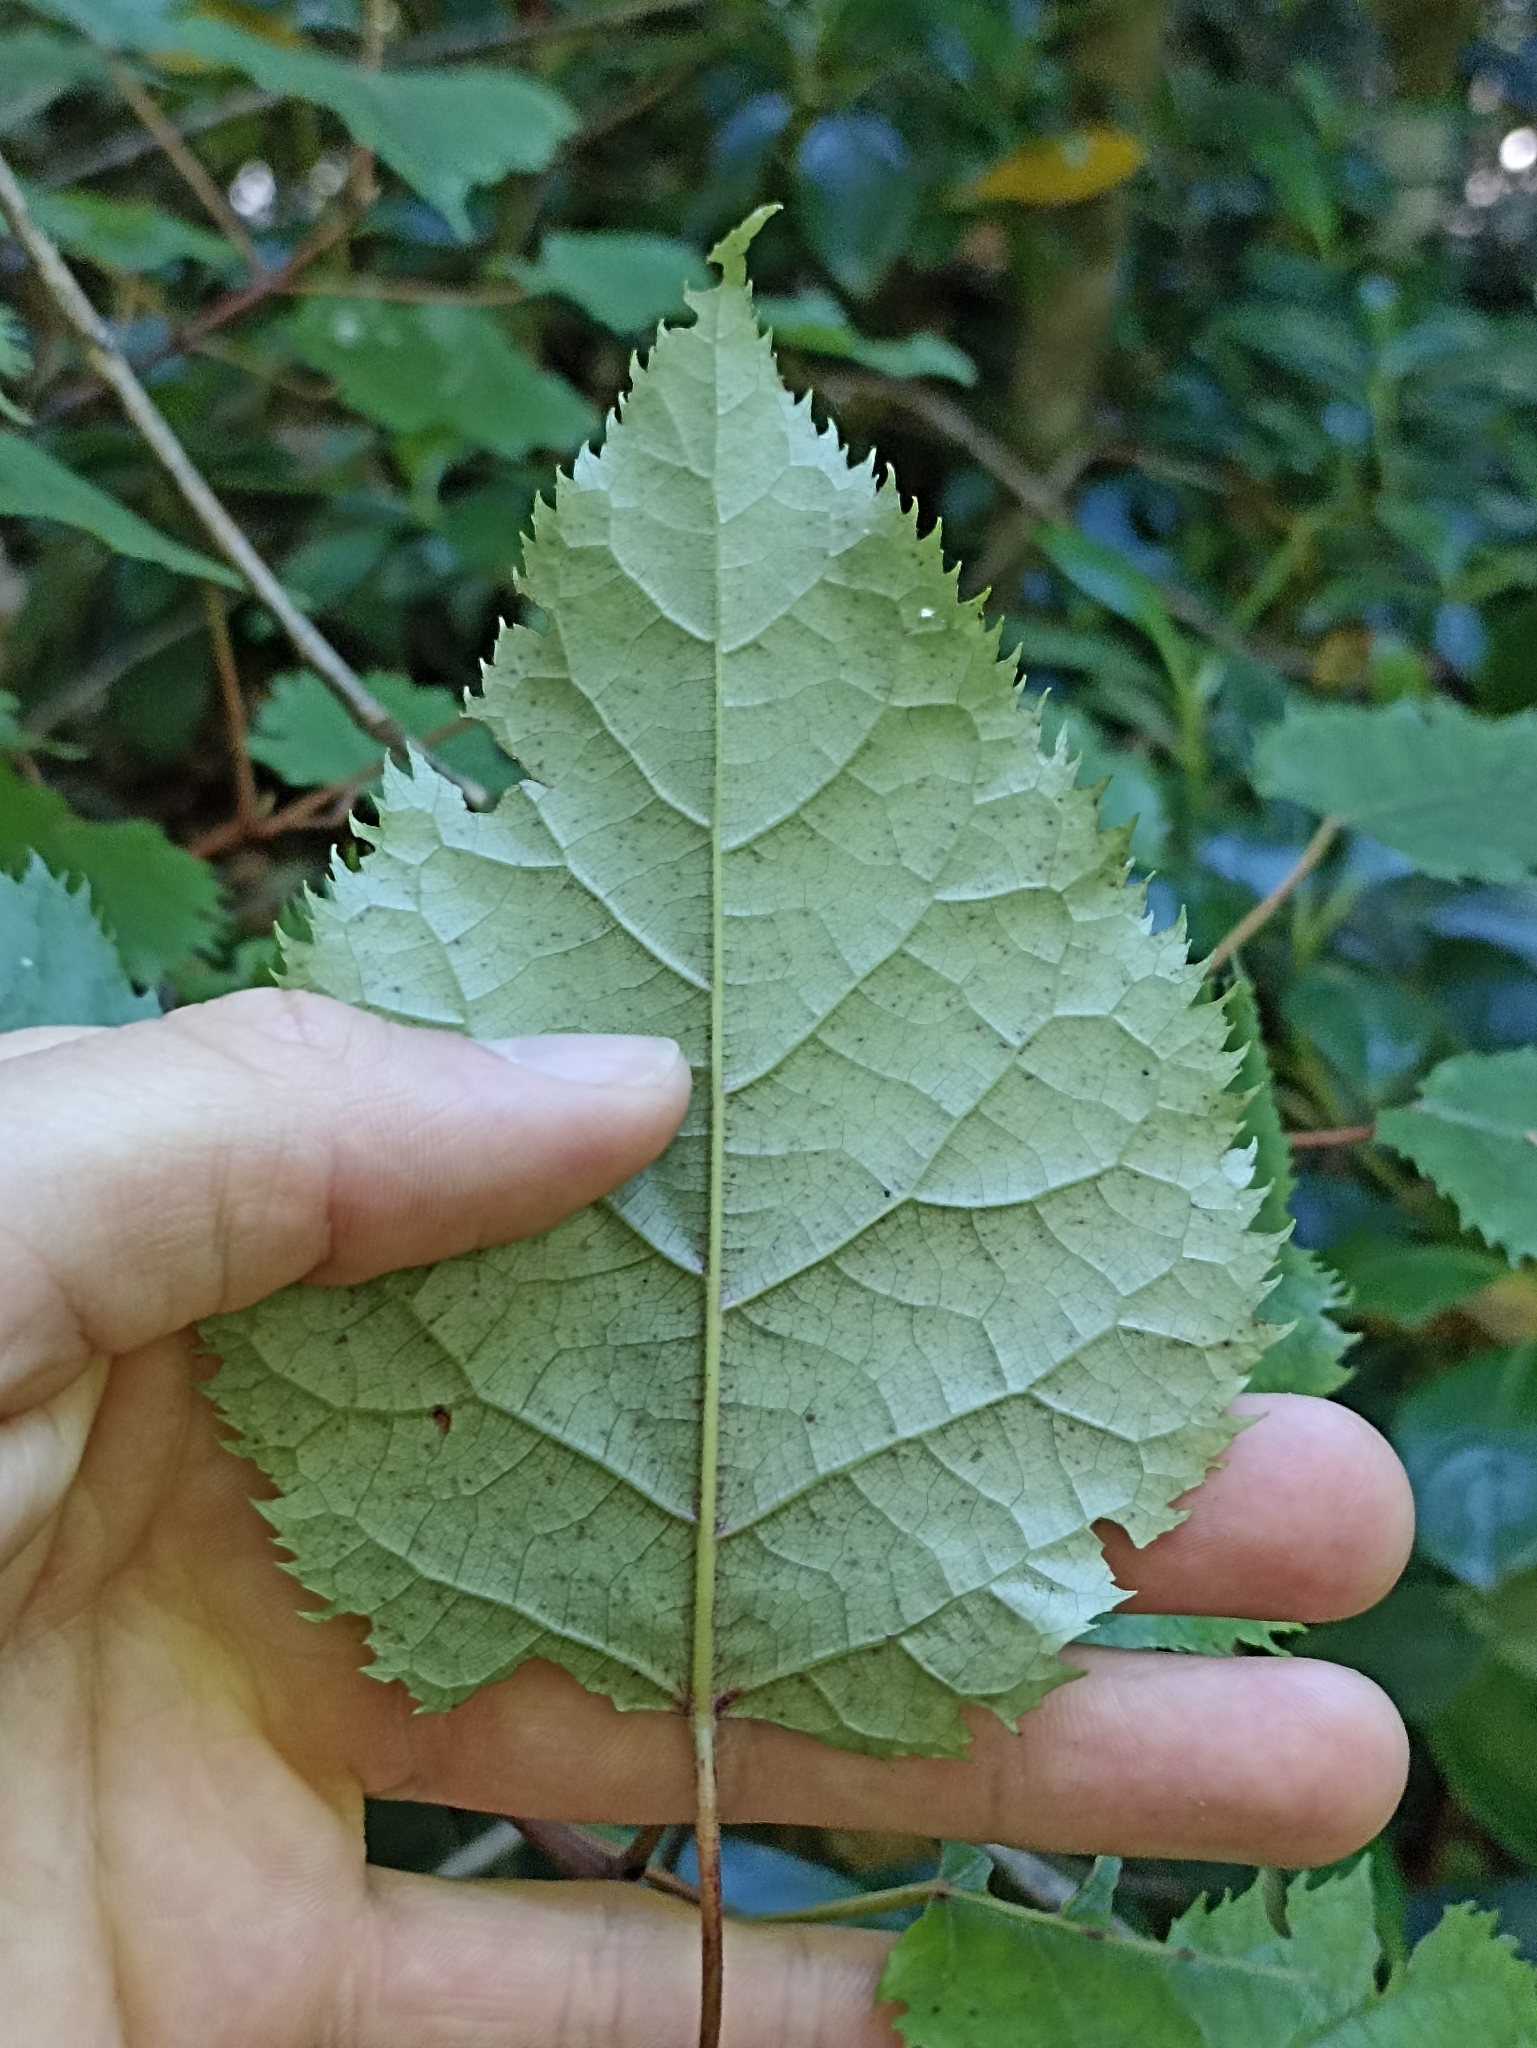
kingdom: Plantae
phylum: Tracheophyta
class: Magnoliopsida
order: Oxalidales
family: Elaeocarpaceae
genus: Aristotelia
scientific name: Aristotelia serrata
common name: New zealand wineberry
